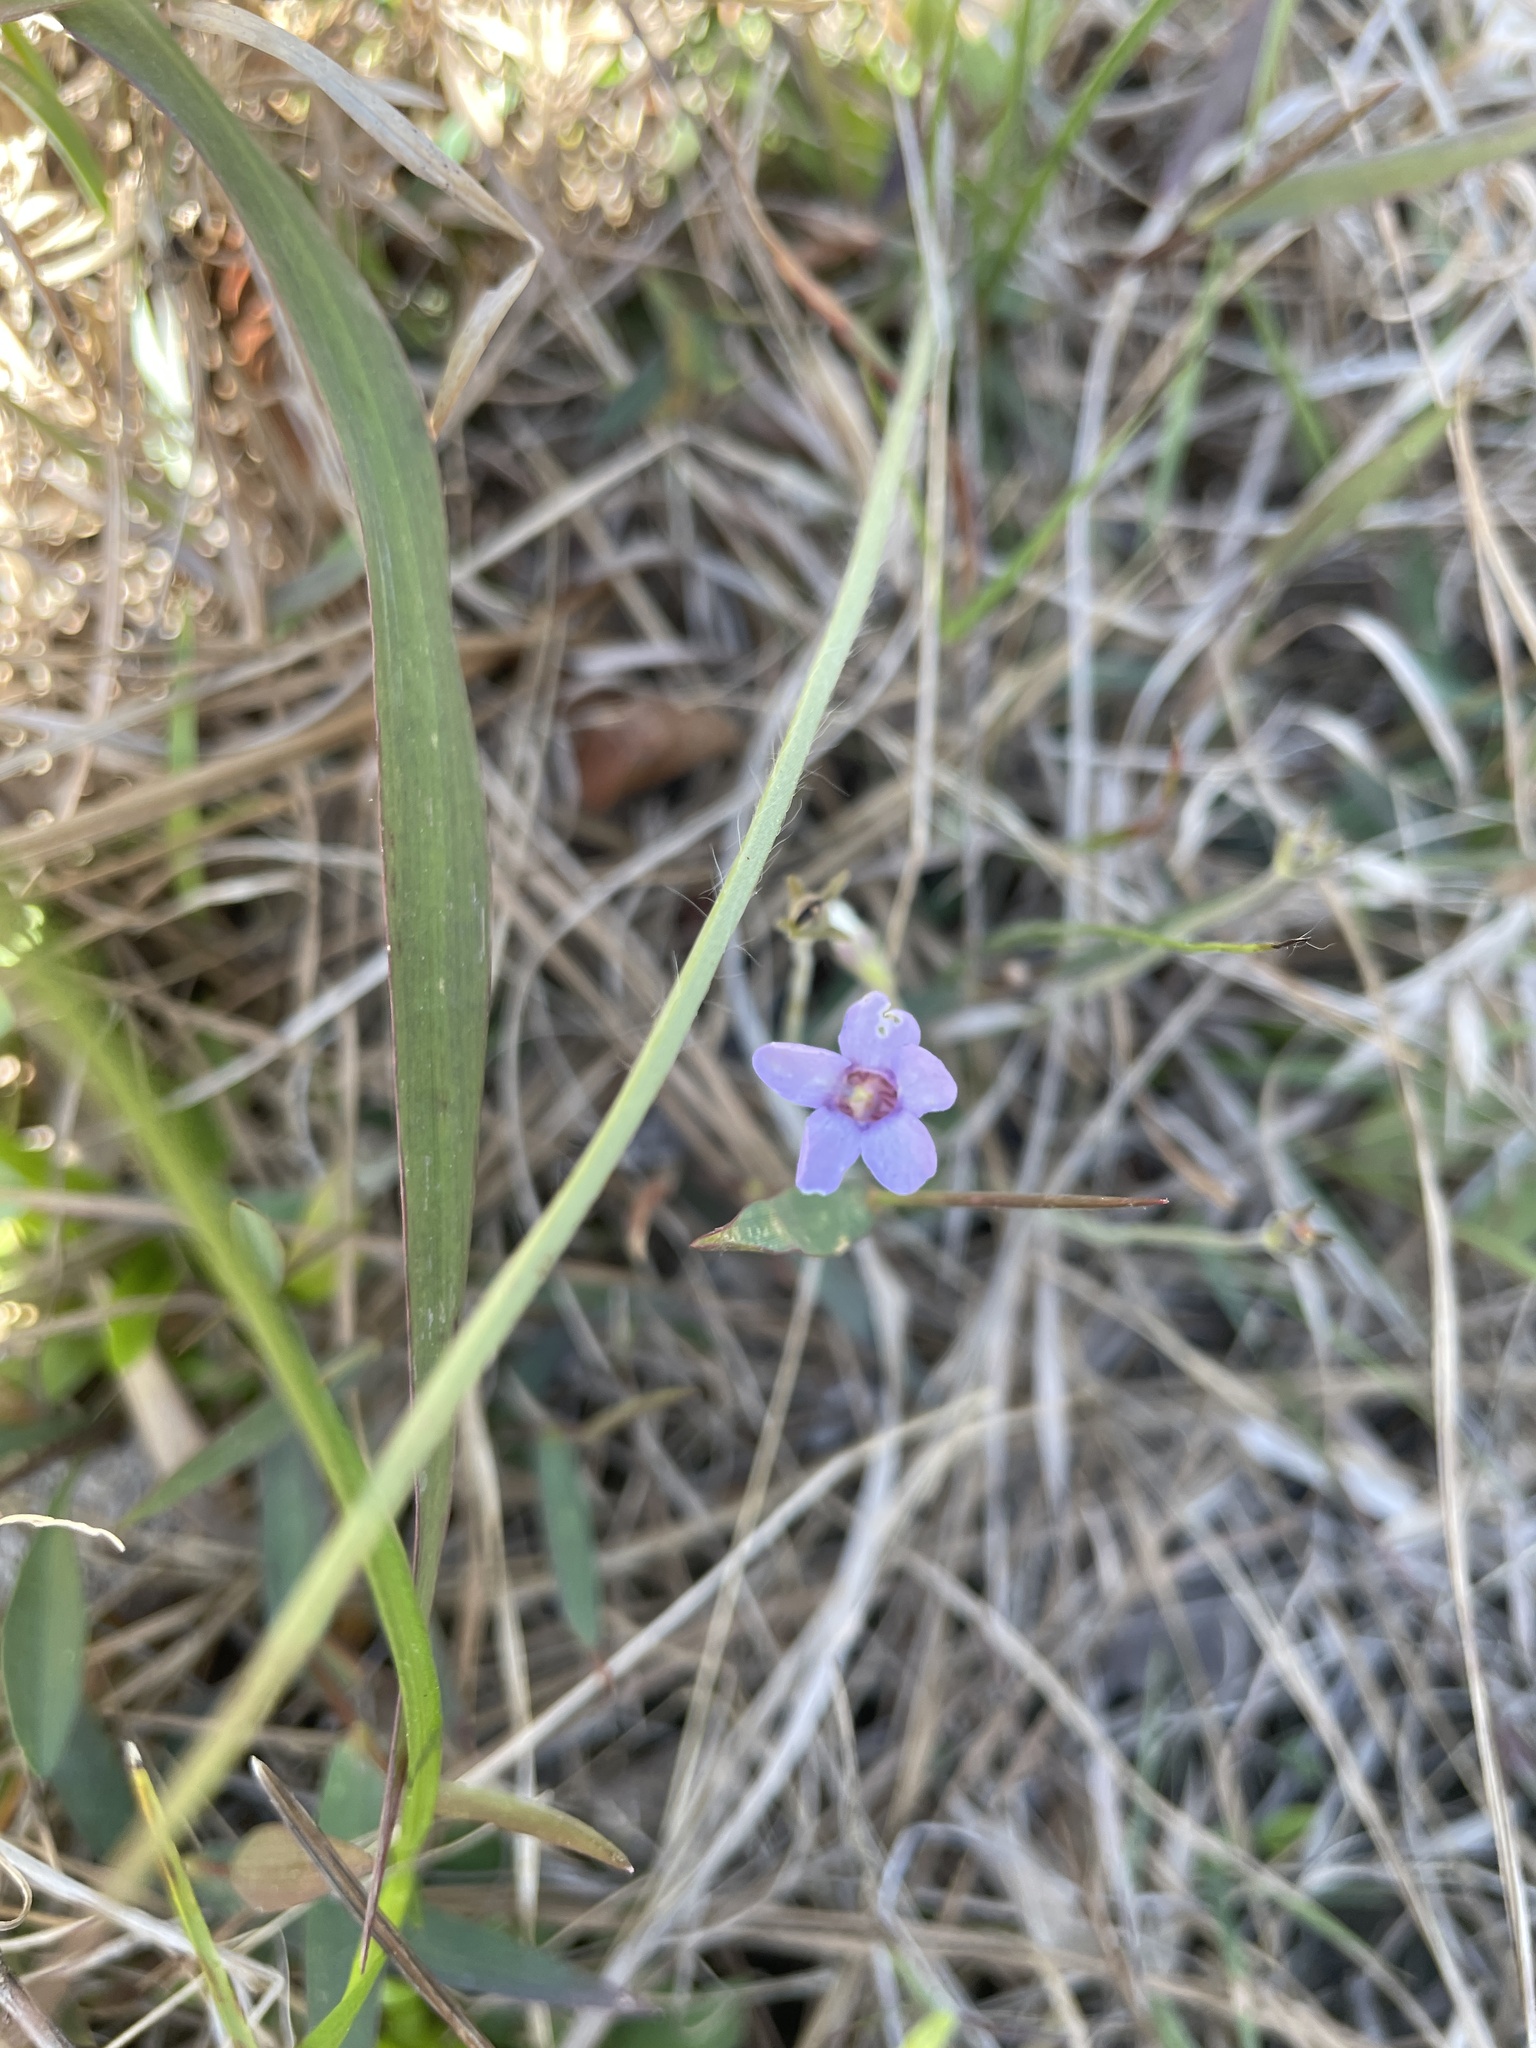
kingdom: Plantae
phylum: Tracheophyta
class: Magnoliopsida
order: Lamiales
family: Lentibulariaceae
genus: Pinguicula
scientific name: Pinguicula pumila
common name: Small butterwort
